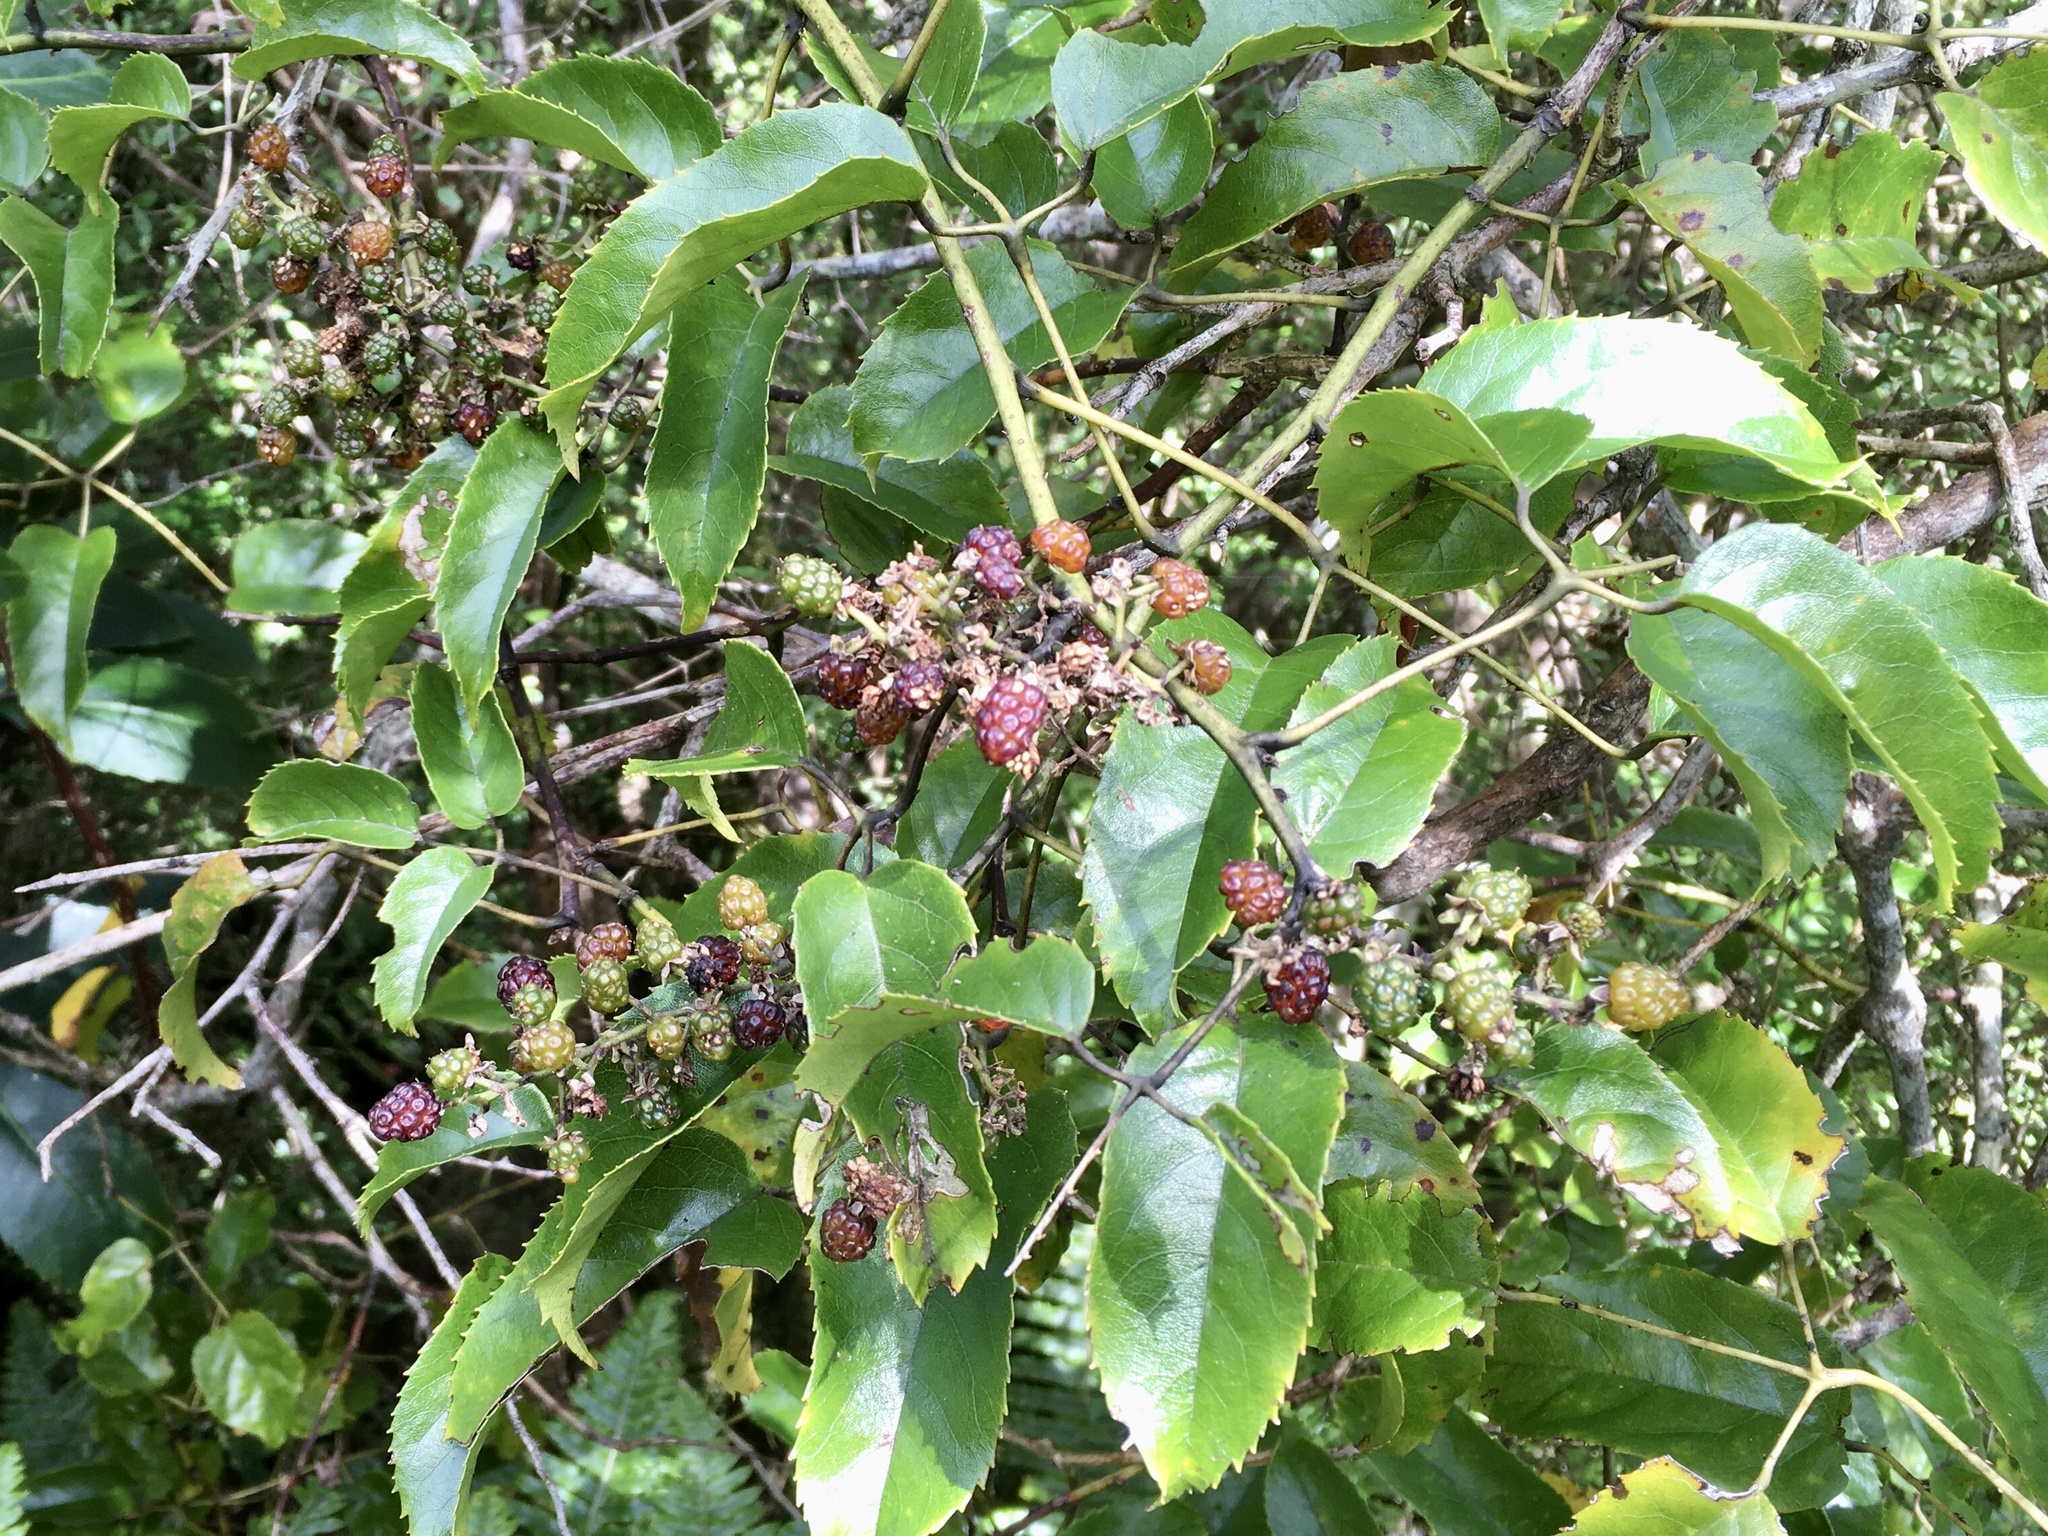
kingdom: Plantae
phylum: Tracheophyta
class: Magnoliopsida
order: Rosales
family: Rosaceae
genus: Rubus
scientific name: Rubus cissoides
